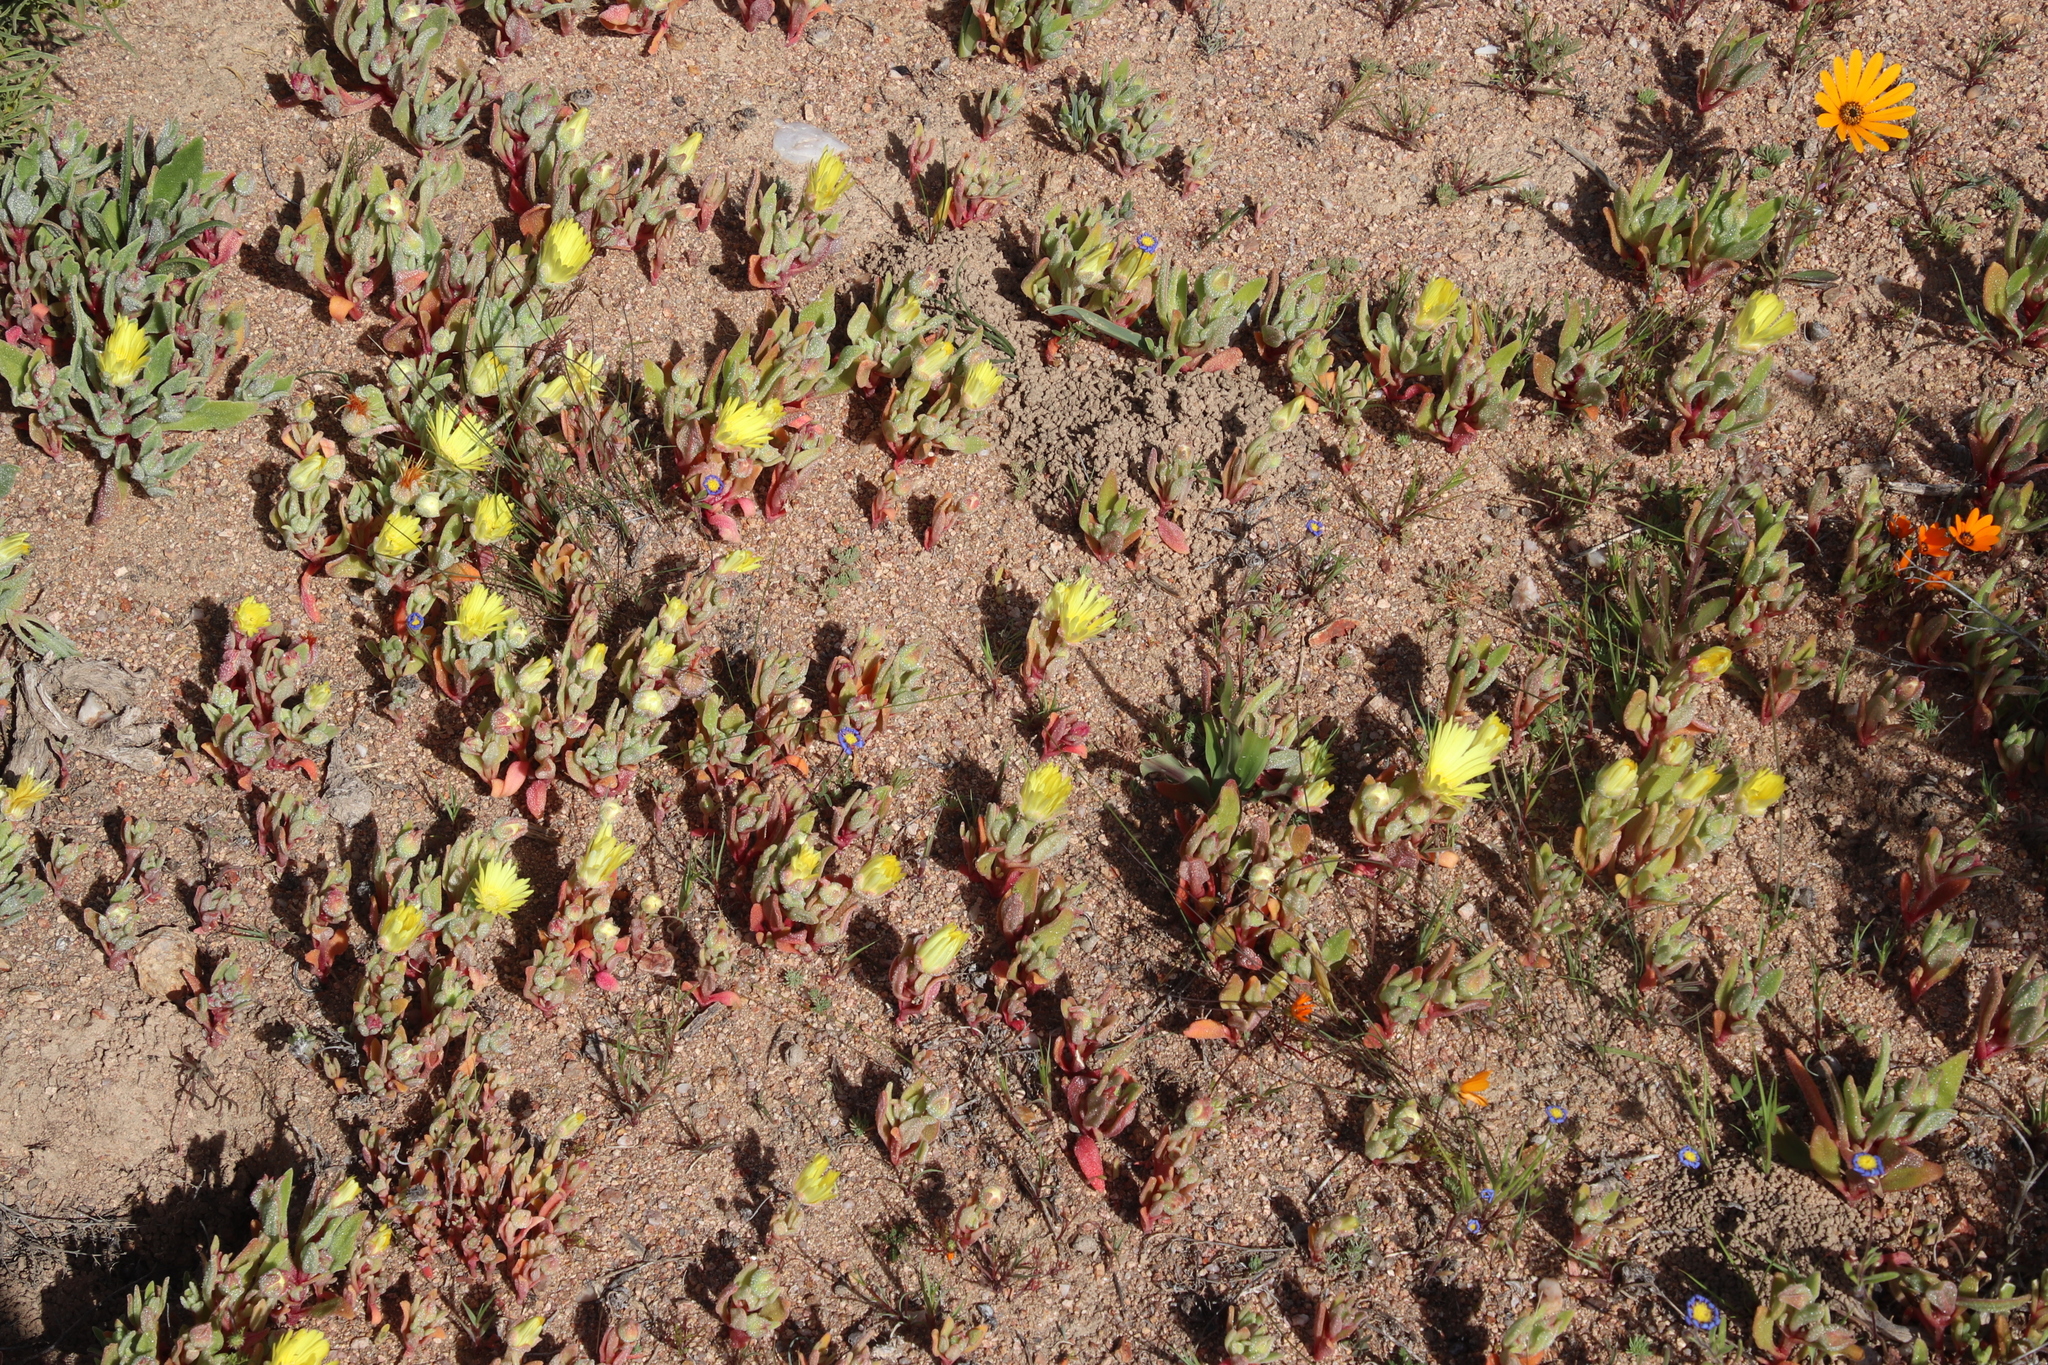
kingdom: Plantae
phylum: Tracheophyta
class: Magnoliopsida
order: Caryophyllales
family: Aizoaceae
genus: Cleretum
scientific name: Cleretum bellidiforme
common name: Livingstone daisy
